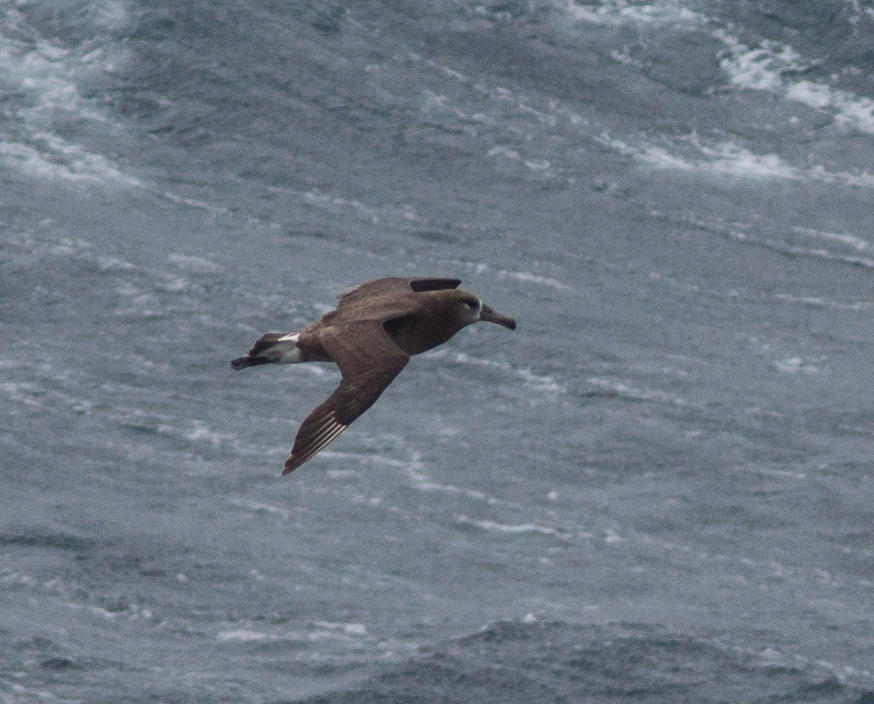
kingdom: Animalia
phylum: Chordata
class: Aves
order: Procellariiformes
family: Diomedeidae
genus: Phoebastria
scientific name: Phoebastria nigripes
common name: Black-footed albatross
